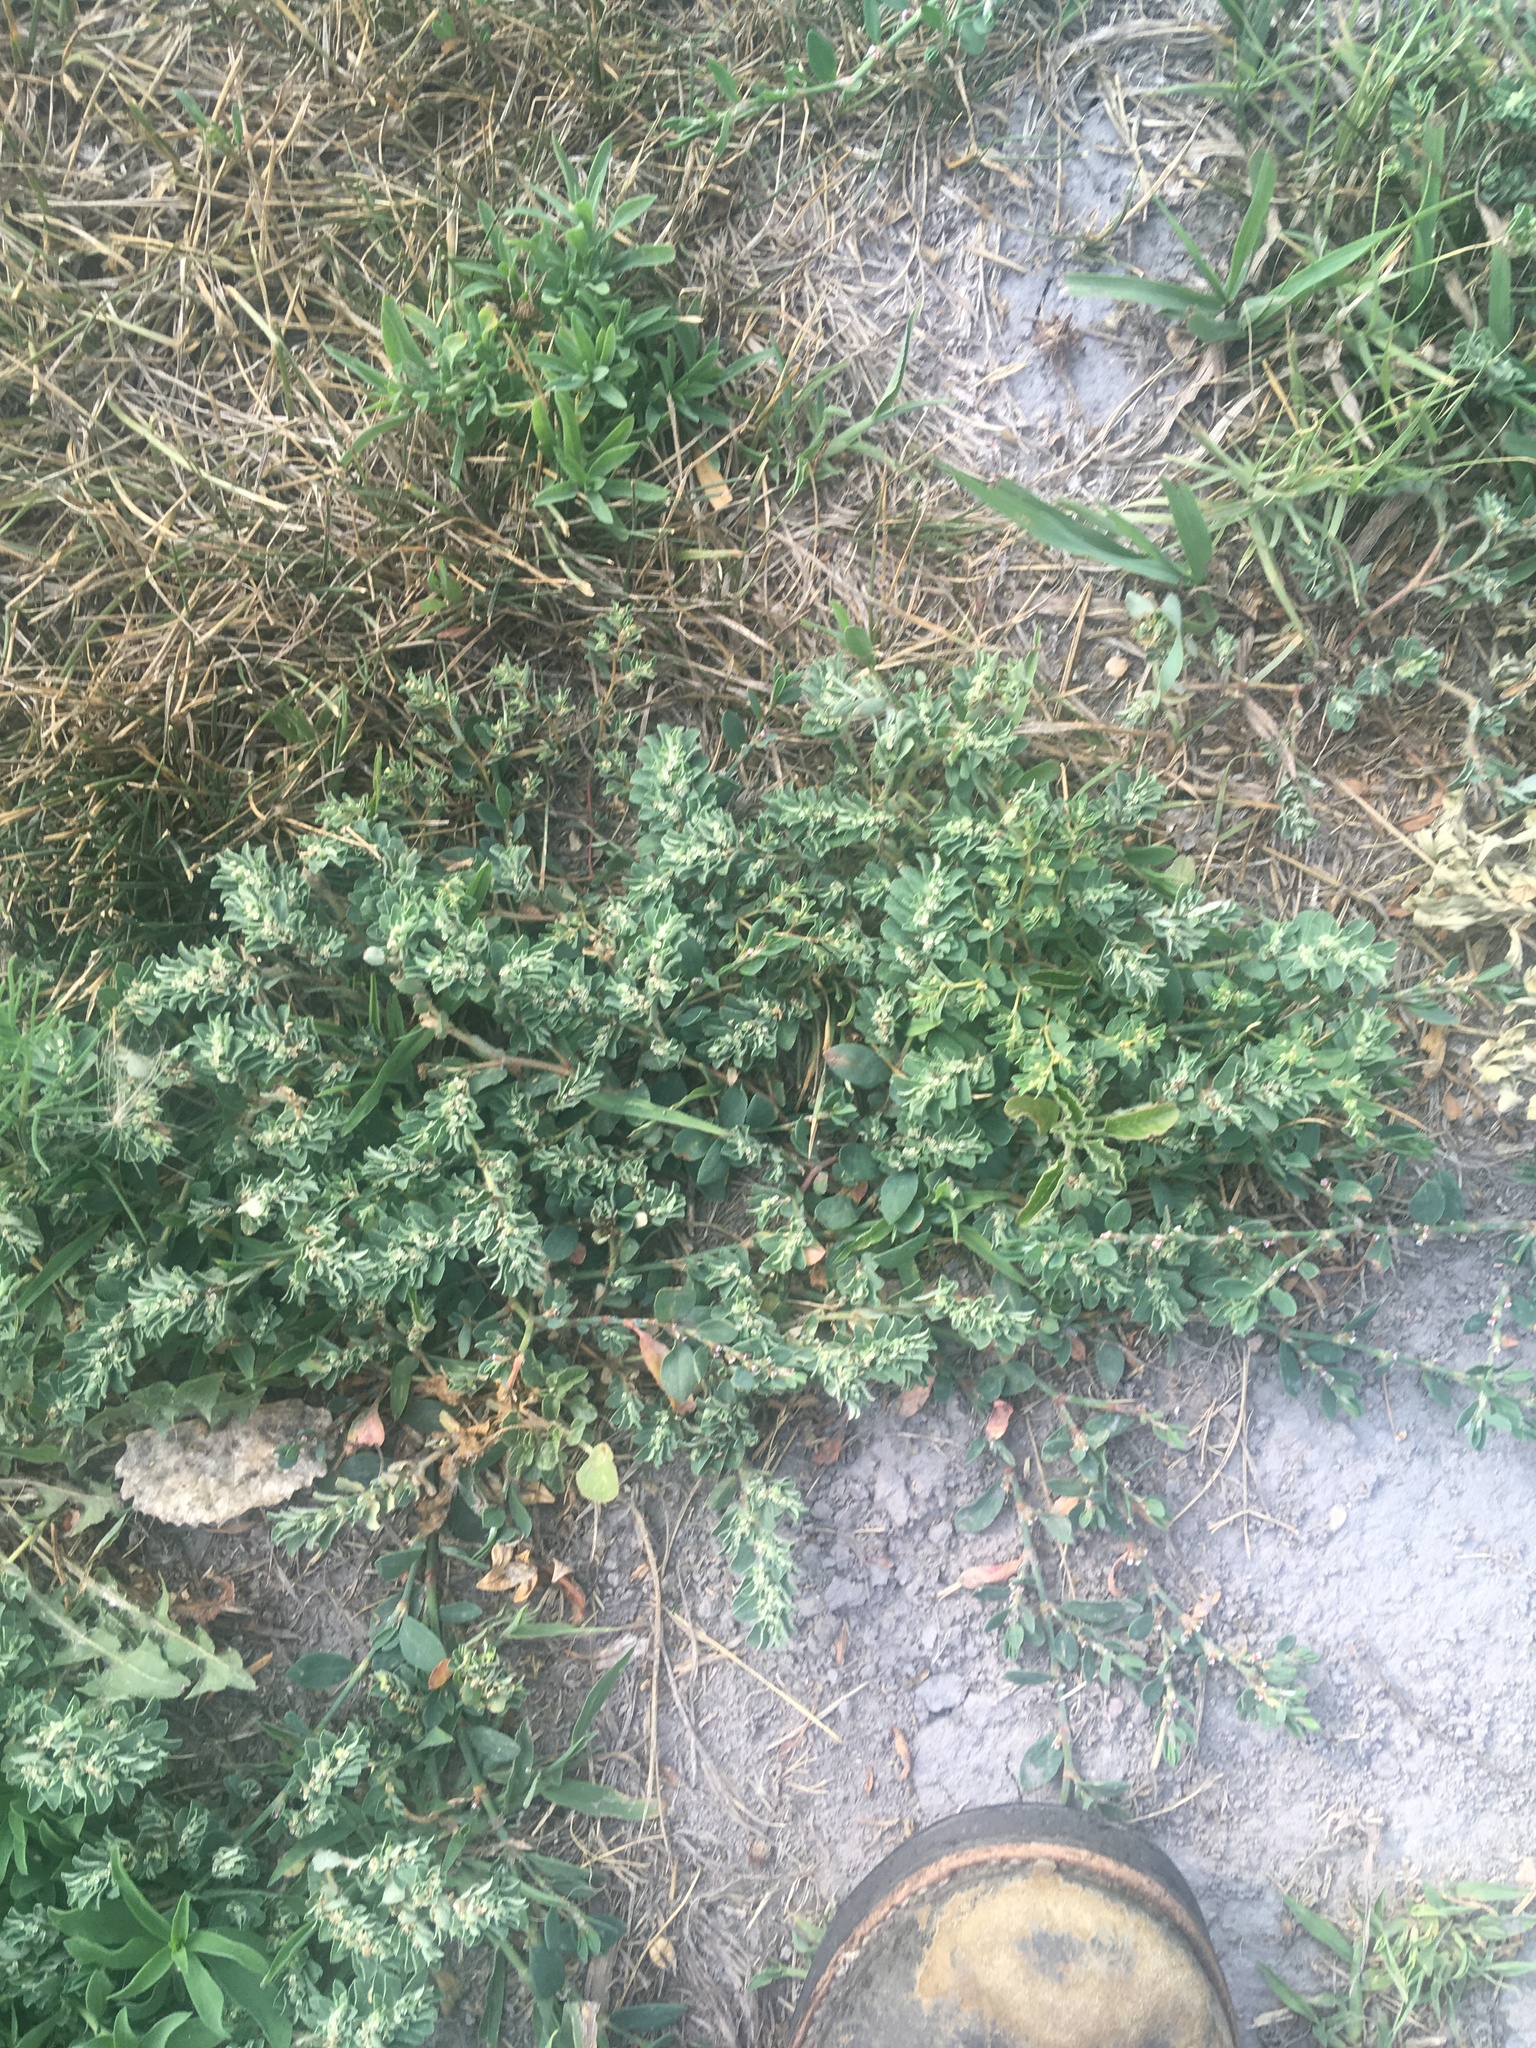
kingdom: Plantae
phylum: Tracheophyta
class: Magnoliopsida
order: Malpighiales
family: Euphorbiaceae
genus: Euphorbia
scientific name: Euphorbia stictospora
